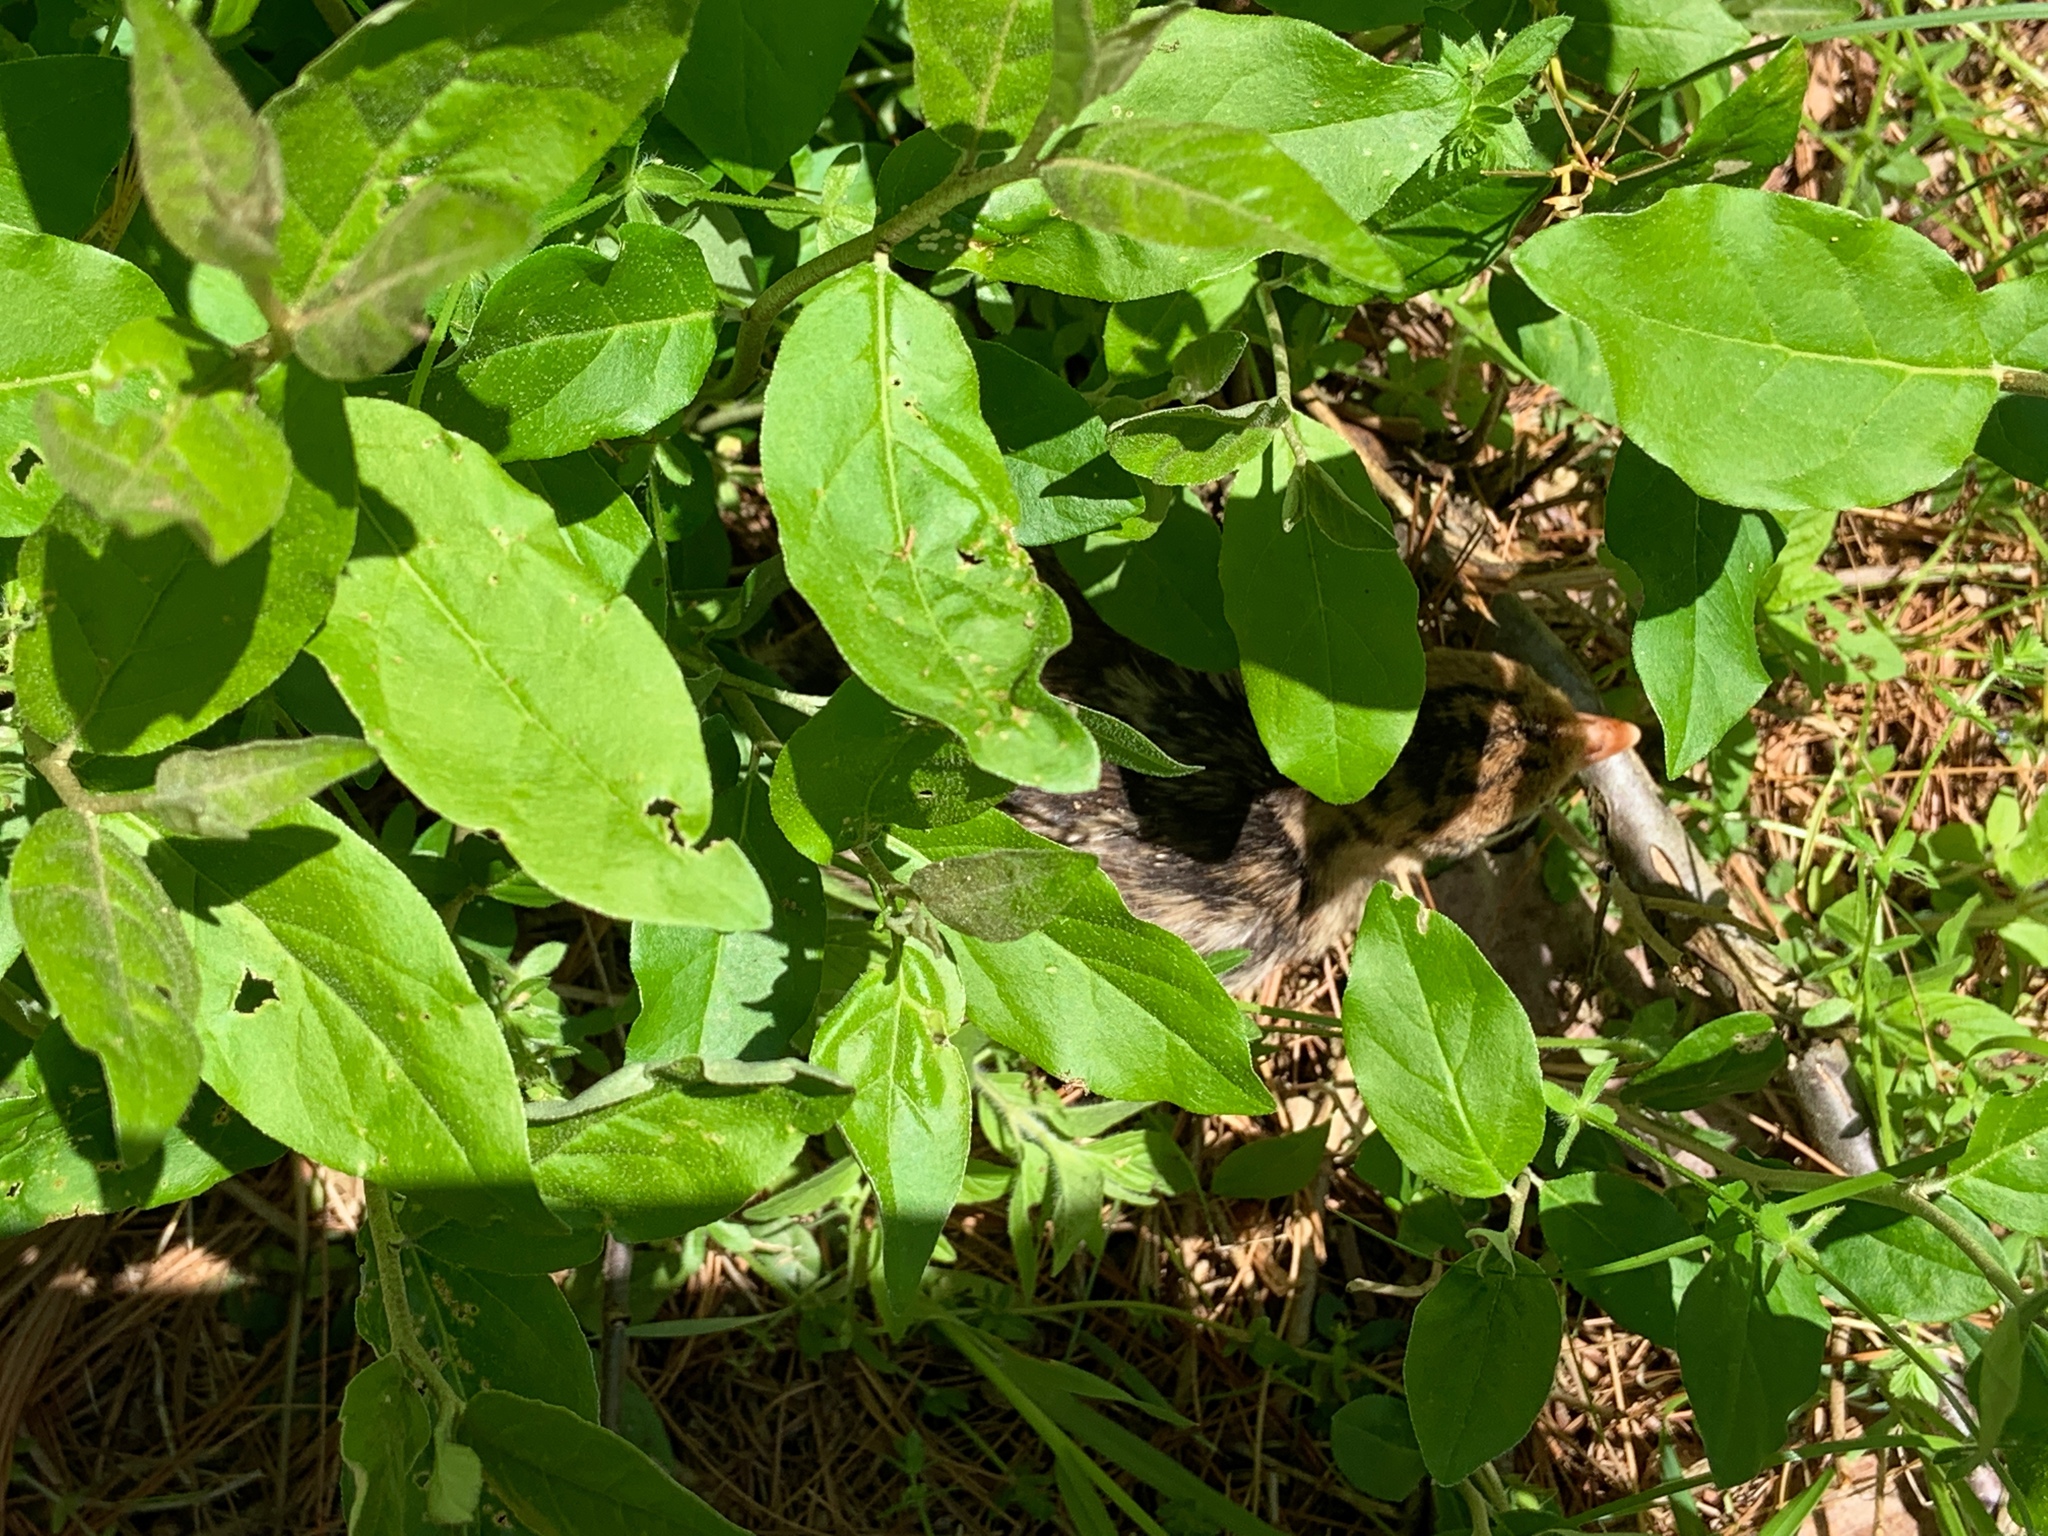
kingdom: Animalia
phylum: Chordata
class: Aves
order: Galliformes
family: Phasianidae
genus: Meleagris
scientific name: Meleagris gallopavo
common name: Wild turkey
